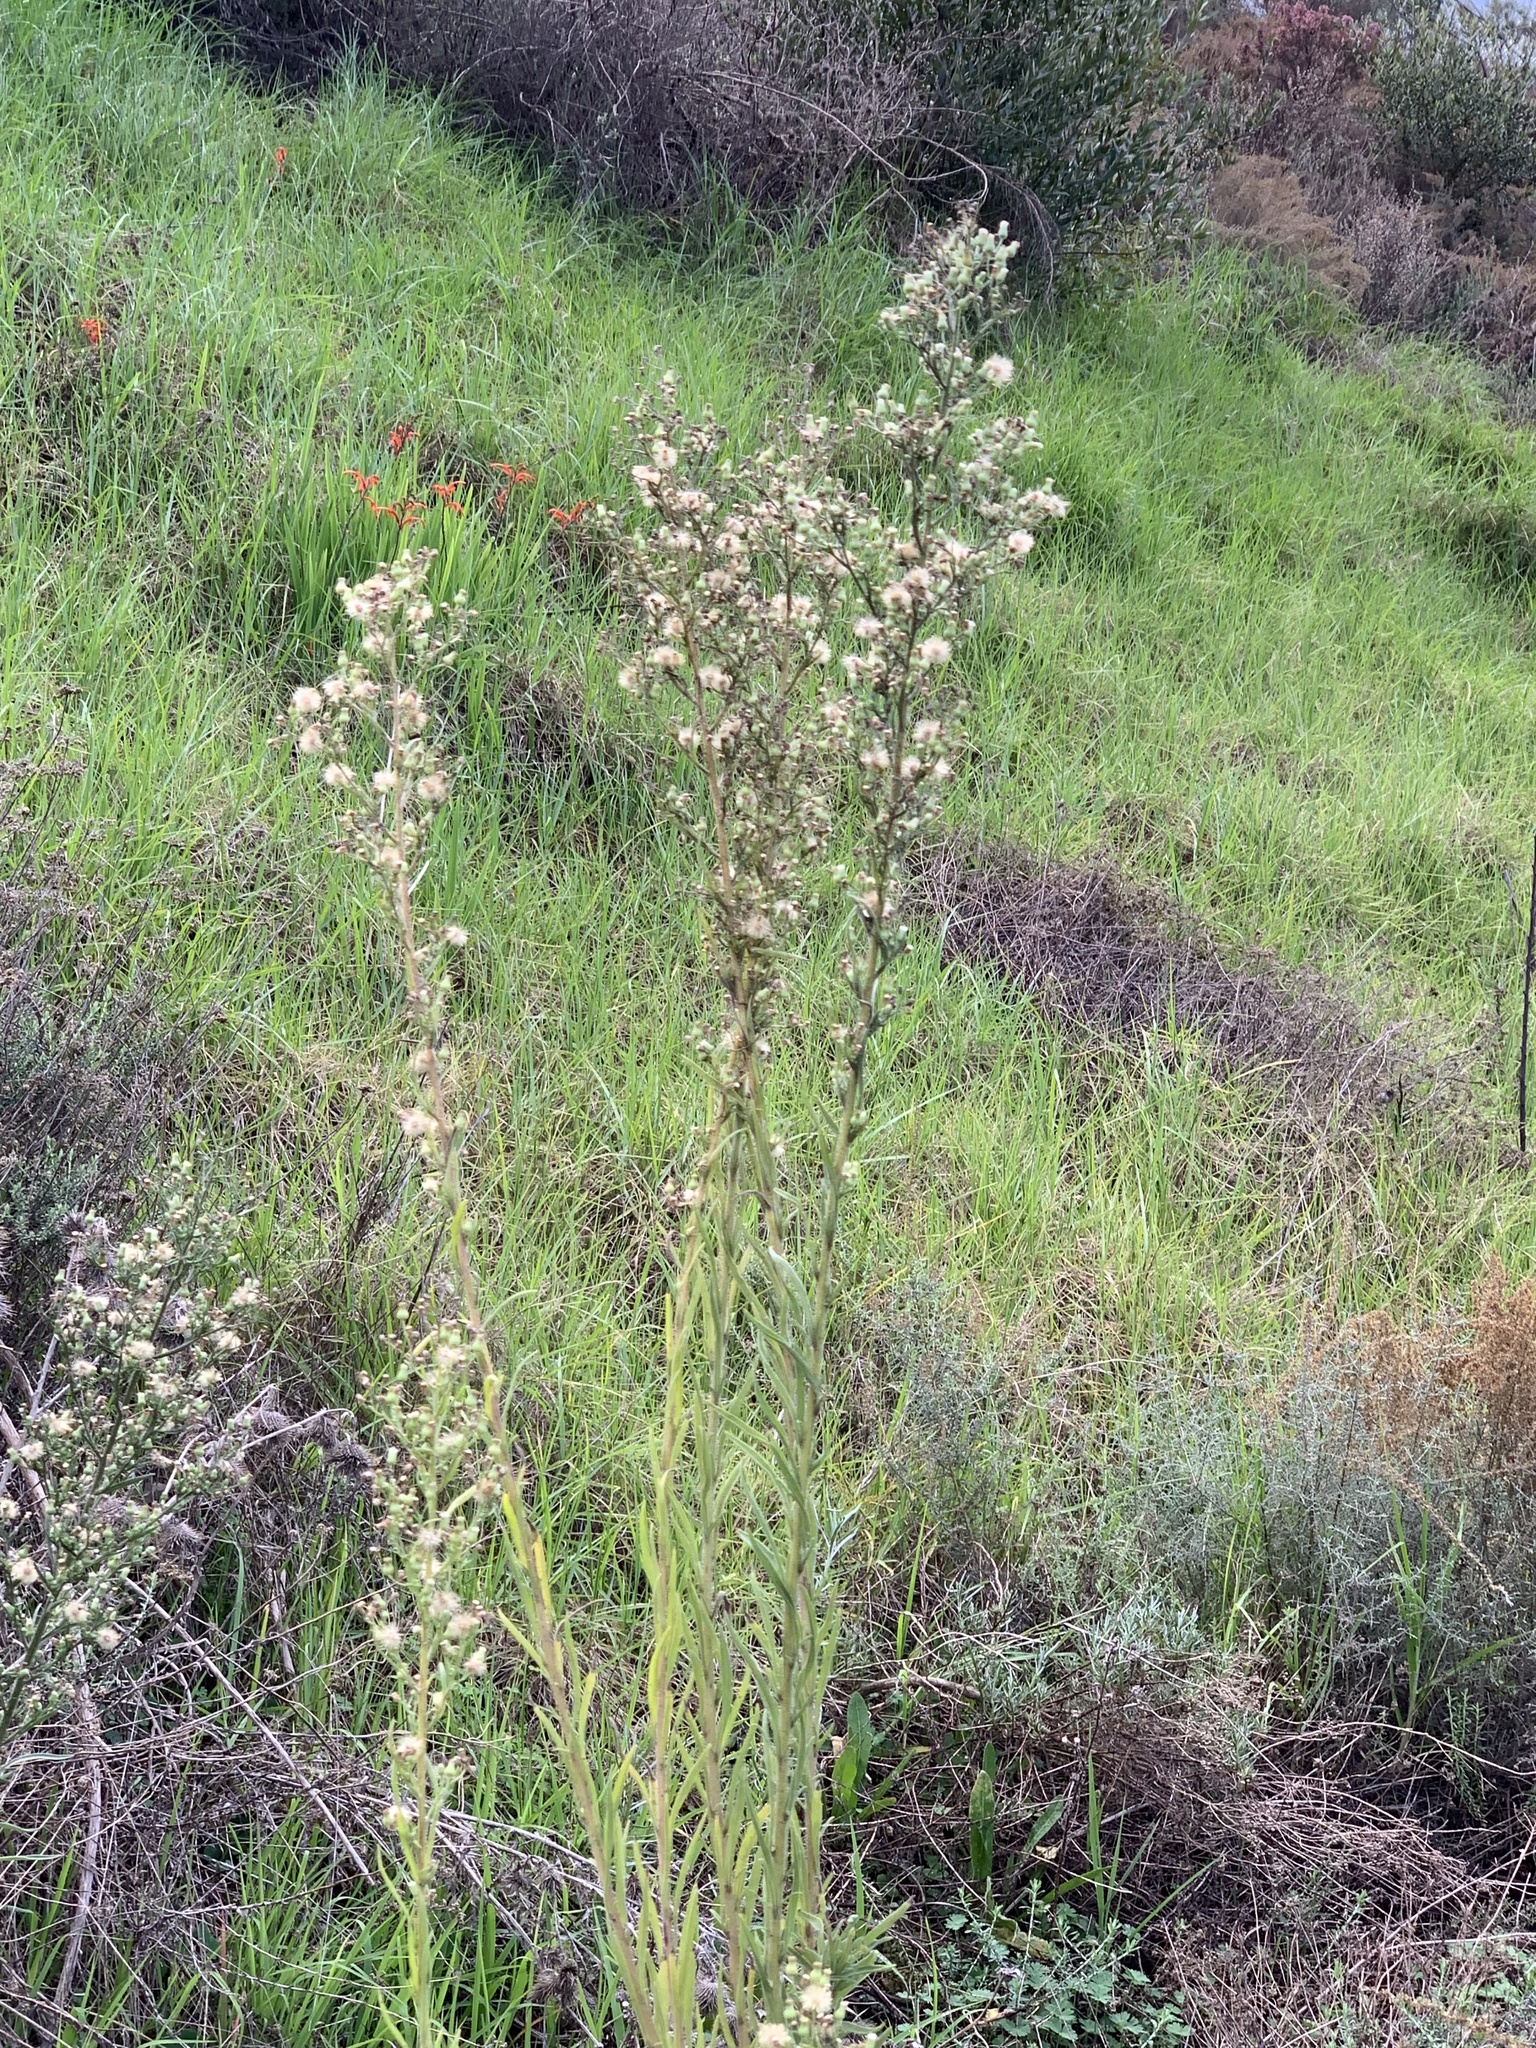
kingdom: Plantae
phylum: Tracheophyta
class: Magnoliopsida
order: Asterales
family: Asteraceae
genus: Erigeron
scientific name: Erigeron sumatrensis
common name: Daisy
